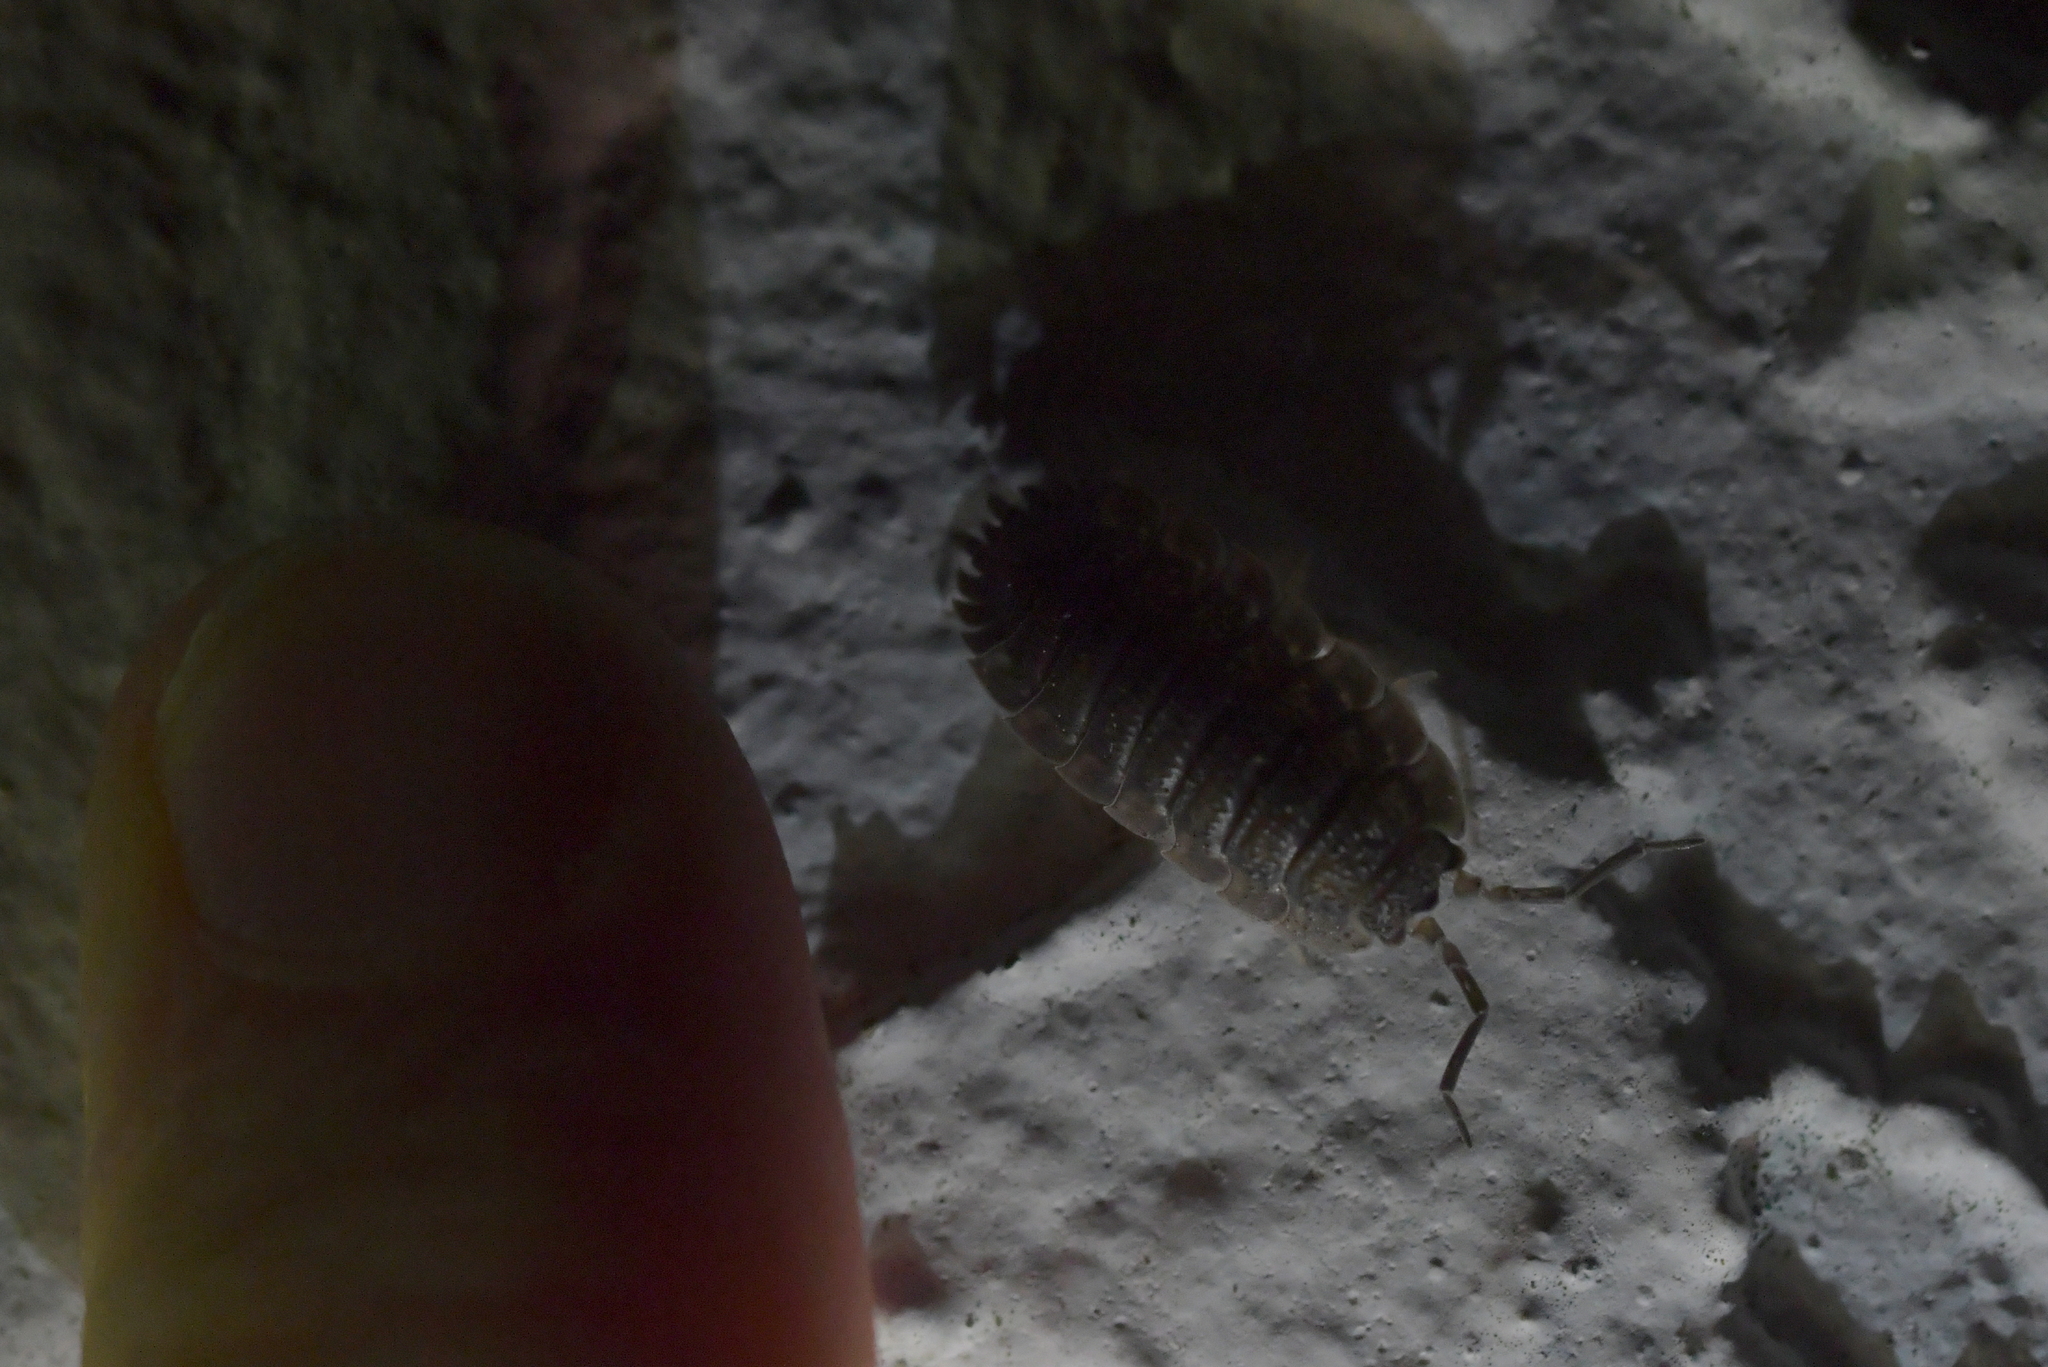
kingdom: Animalia
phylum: Arthropoda
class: Malacostraca
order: Isopoda
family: Porcellionidae
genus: Porcellio
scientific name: Porcellio scaber
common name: Common rough woodlouse
